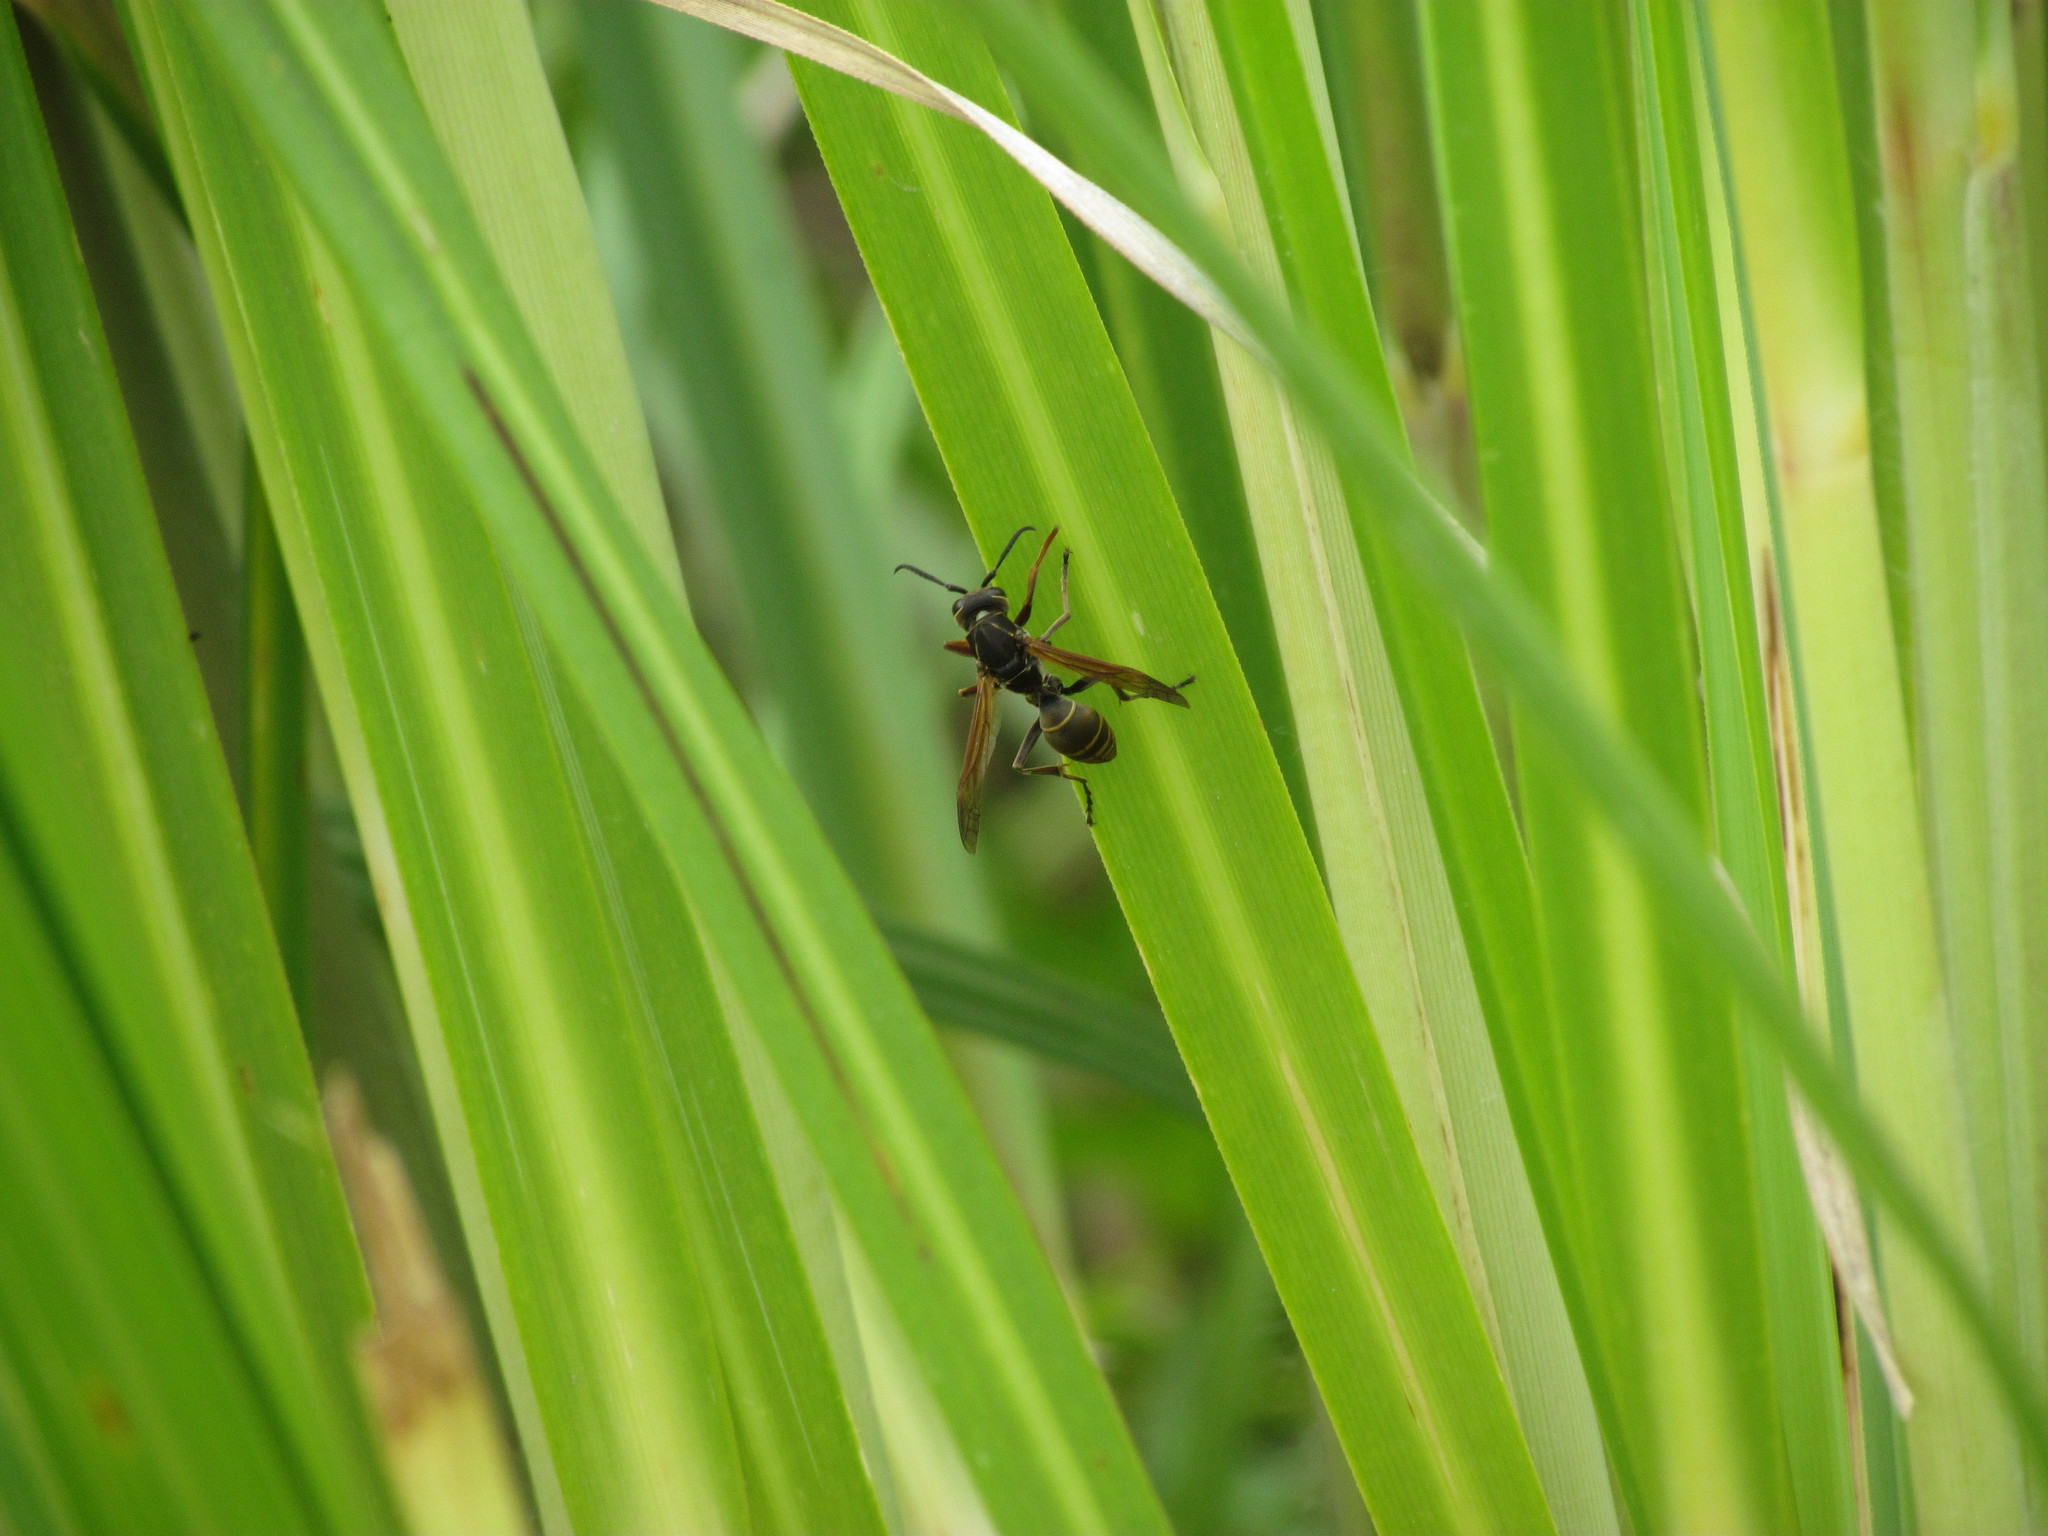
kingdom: Animalia
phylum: Arthropoda
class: Insecta
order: Hymenoptera
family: Eumenidae
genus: Polistes
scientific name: Polistes cinerascens
